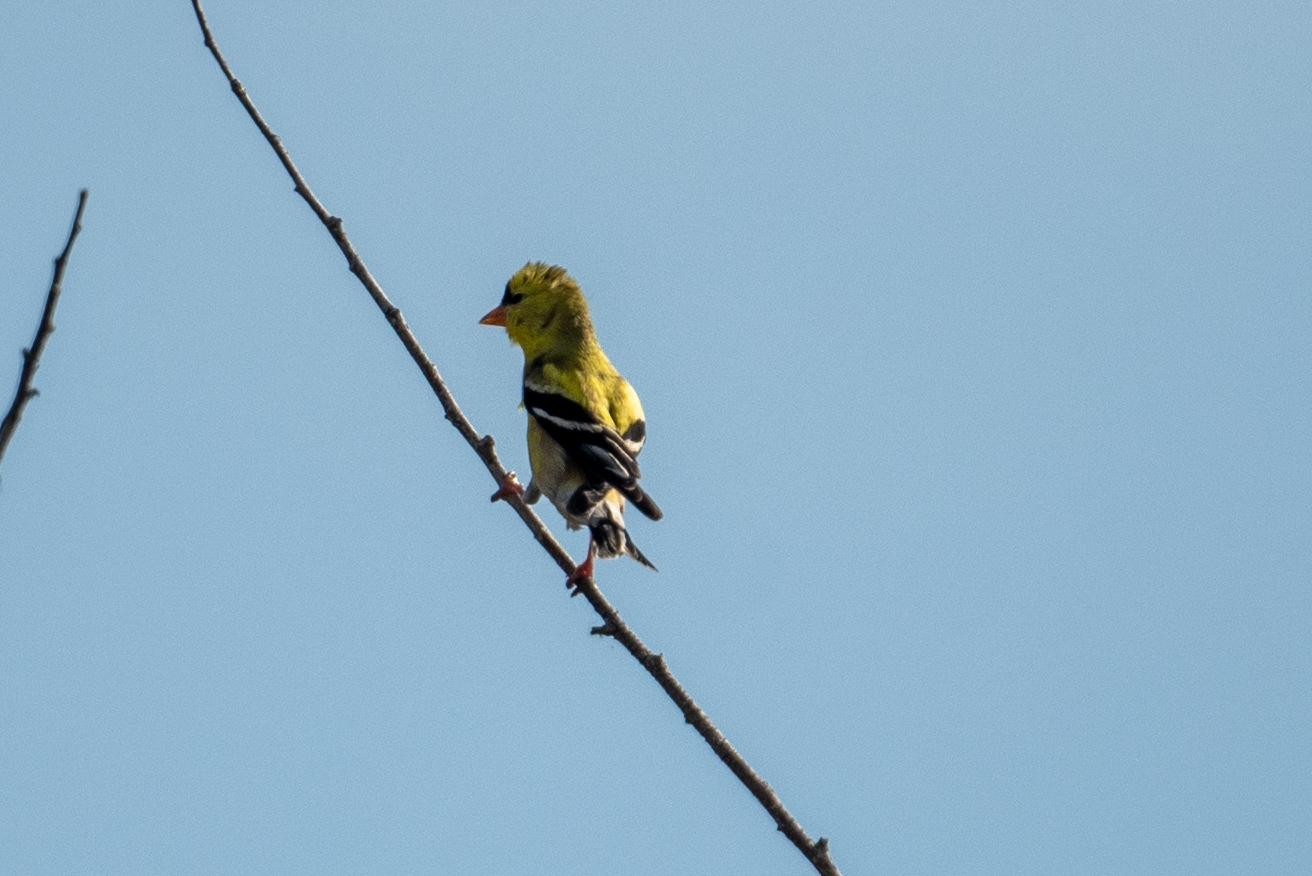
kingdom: Animalia
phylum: Chordata
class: Aves
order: Passeriformes
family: Fringillidae
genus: Spinus
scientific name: Spinus tristis
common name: American goldfinch
